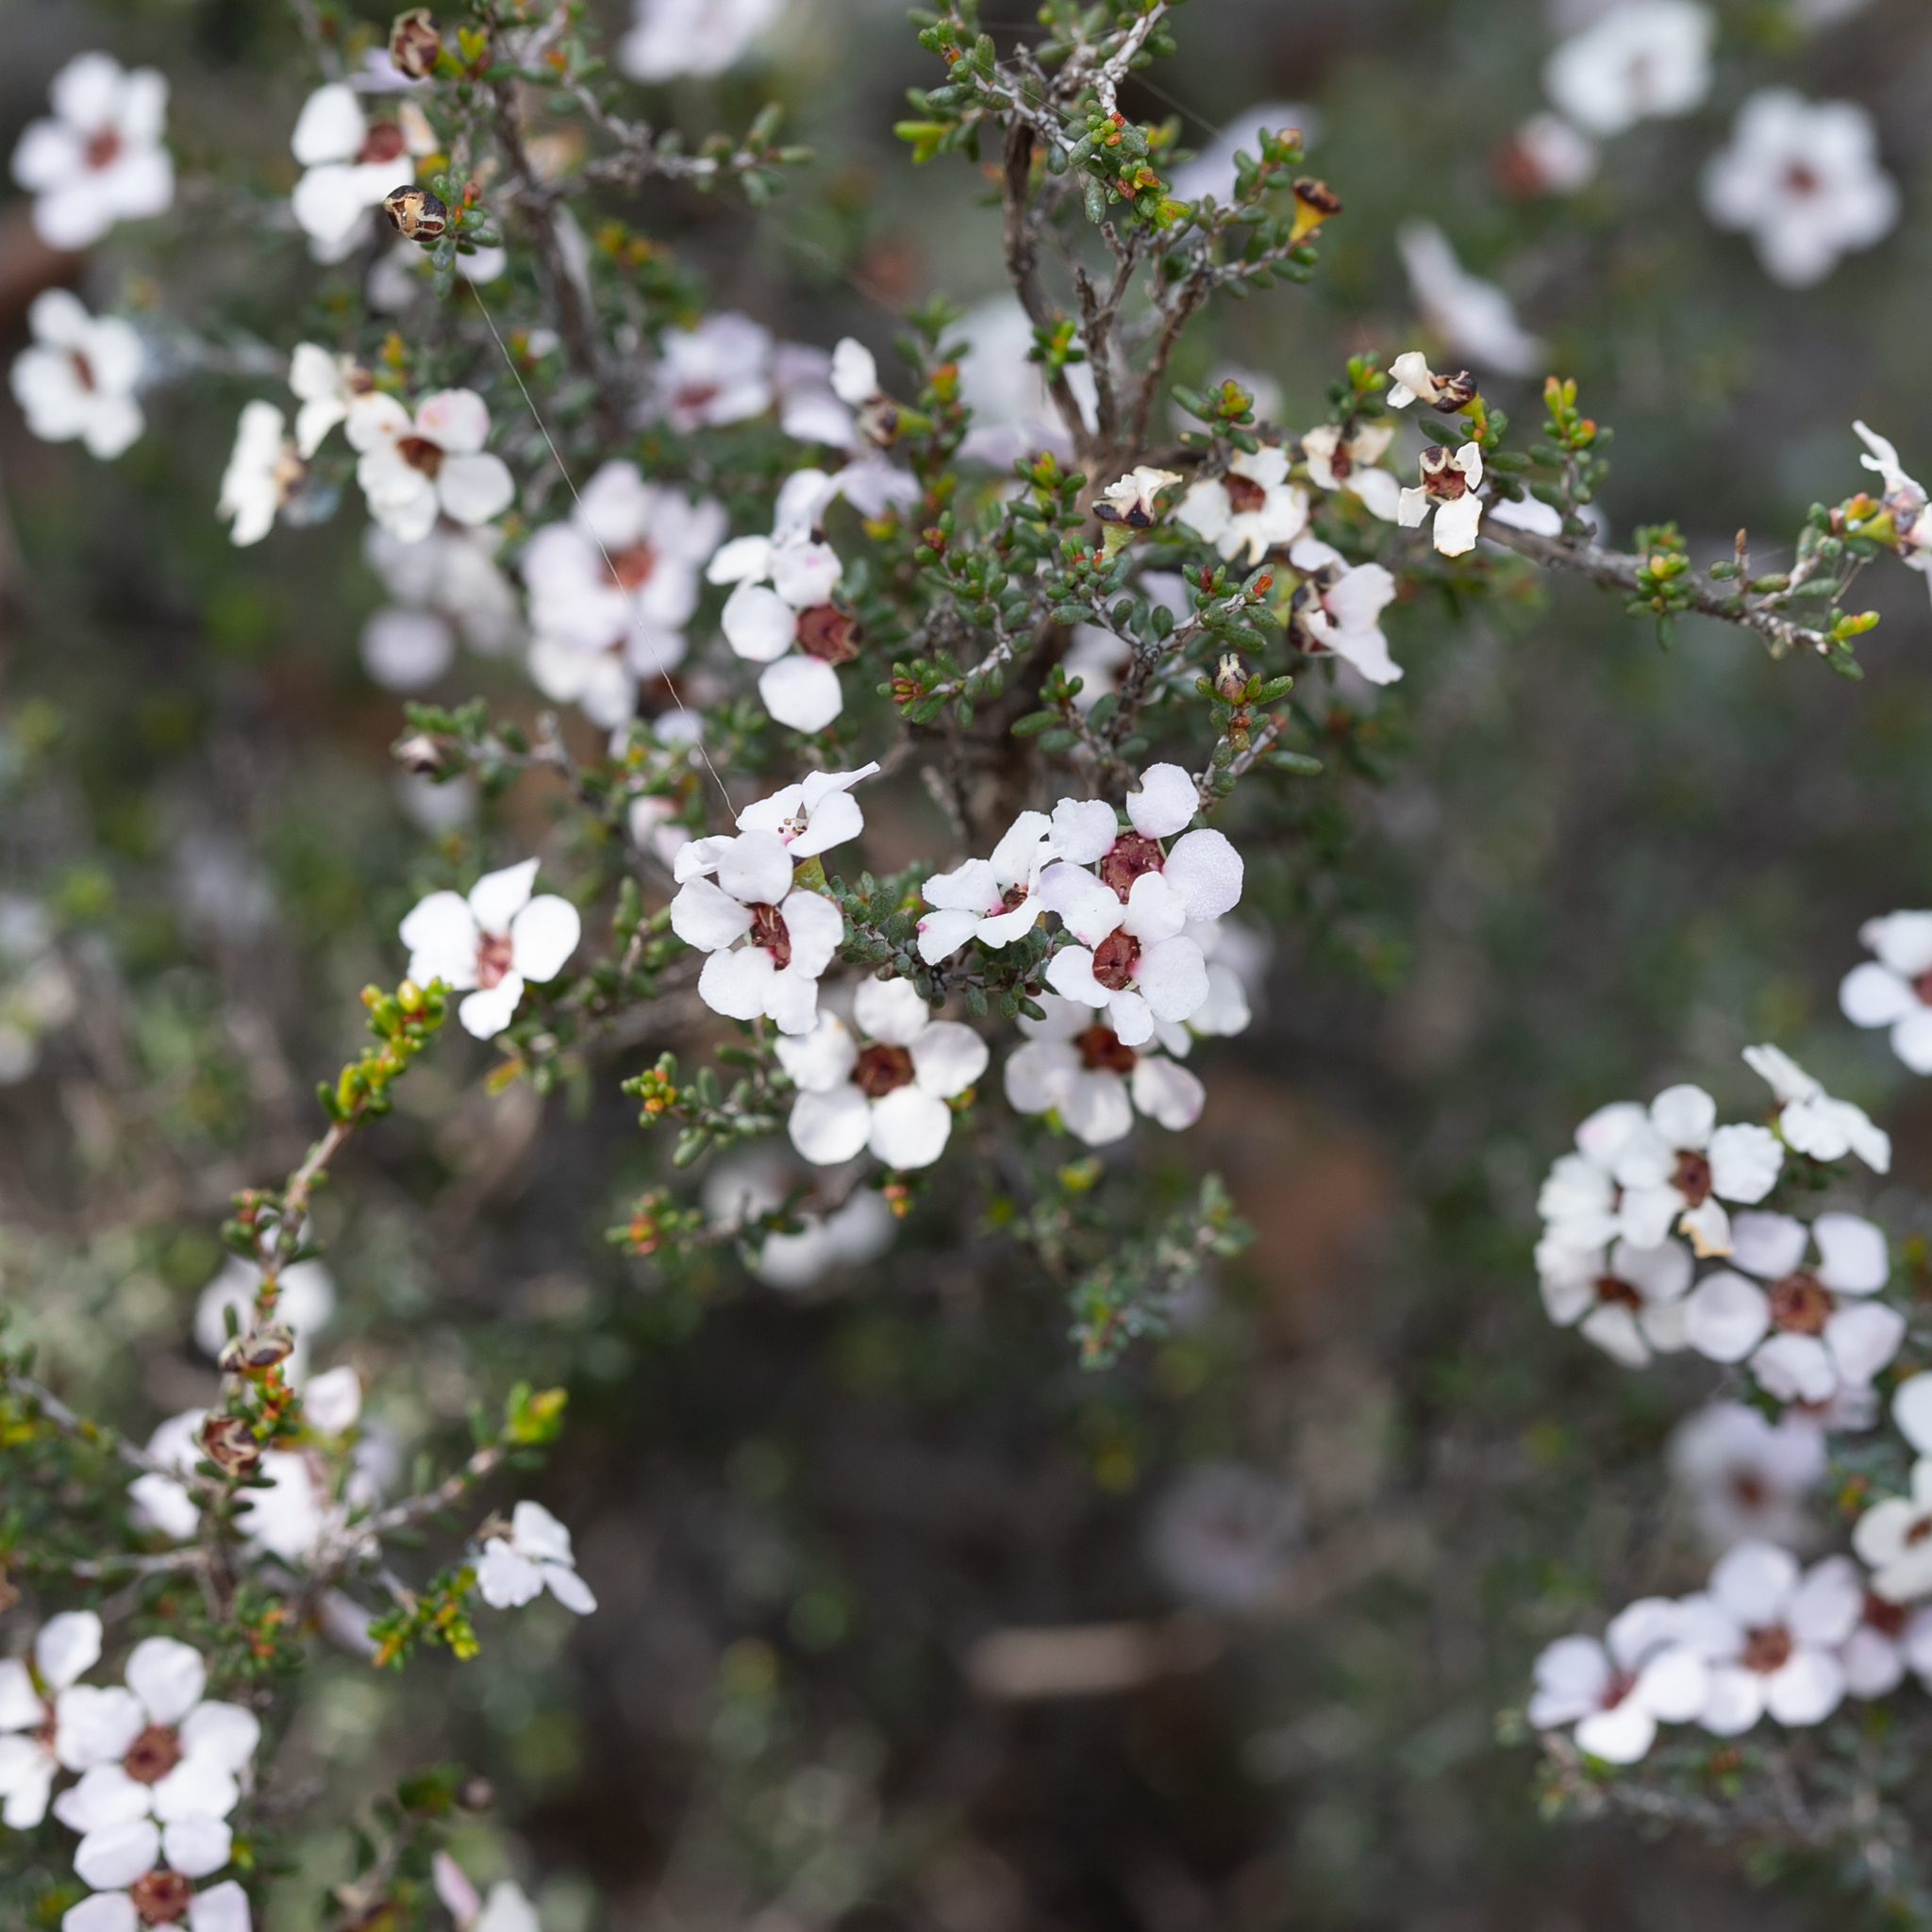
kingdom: Plantae
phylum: Tracheophyta
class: Magnoliopsida
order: Myrtales
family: Myrtaceae
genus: Rinzia
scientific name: Rinzia orientalis
